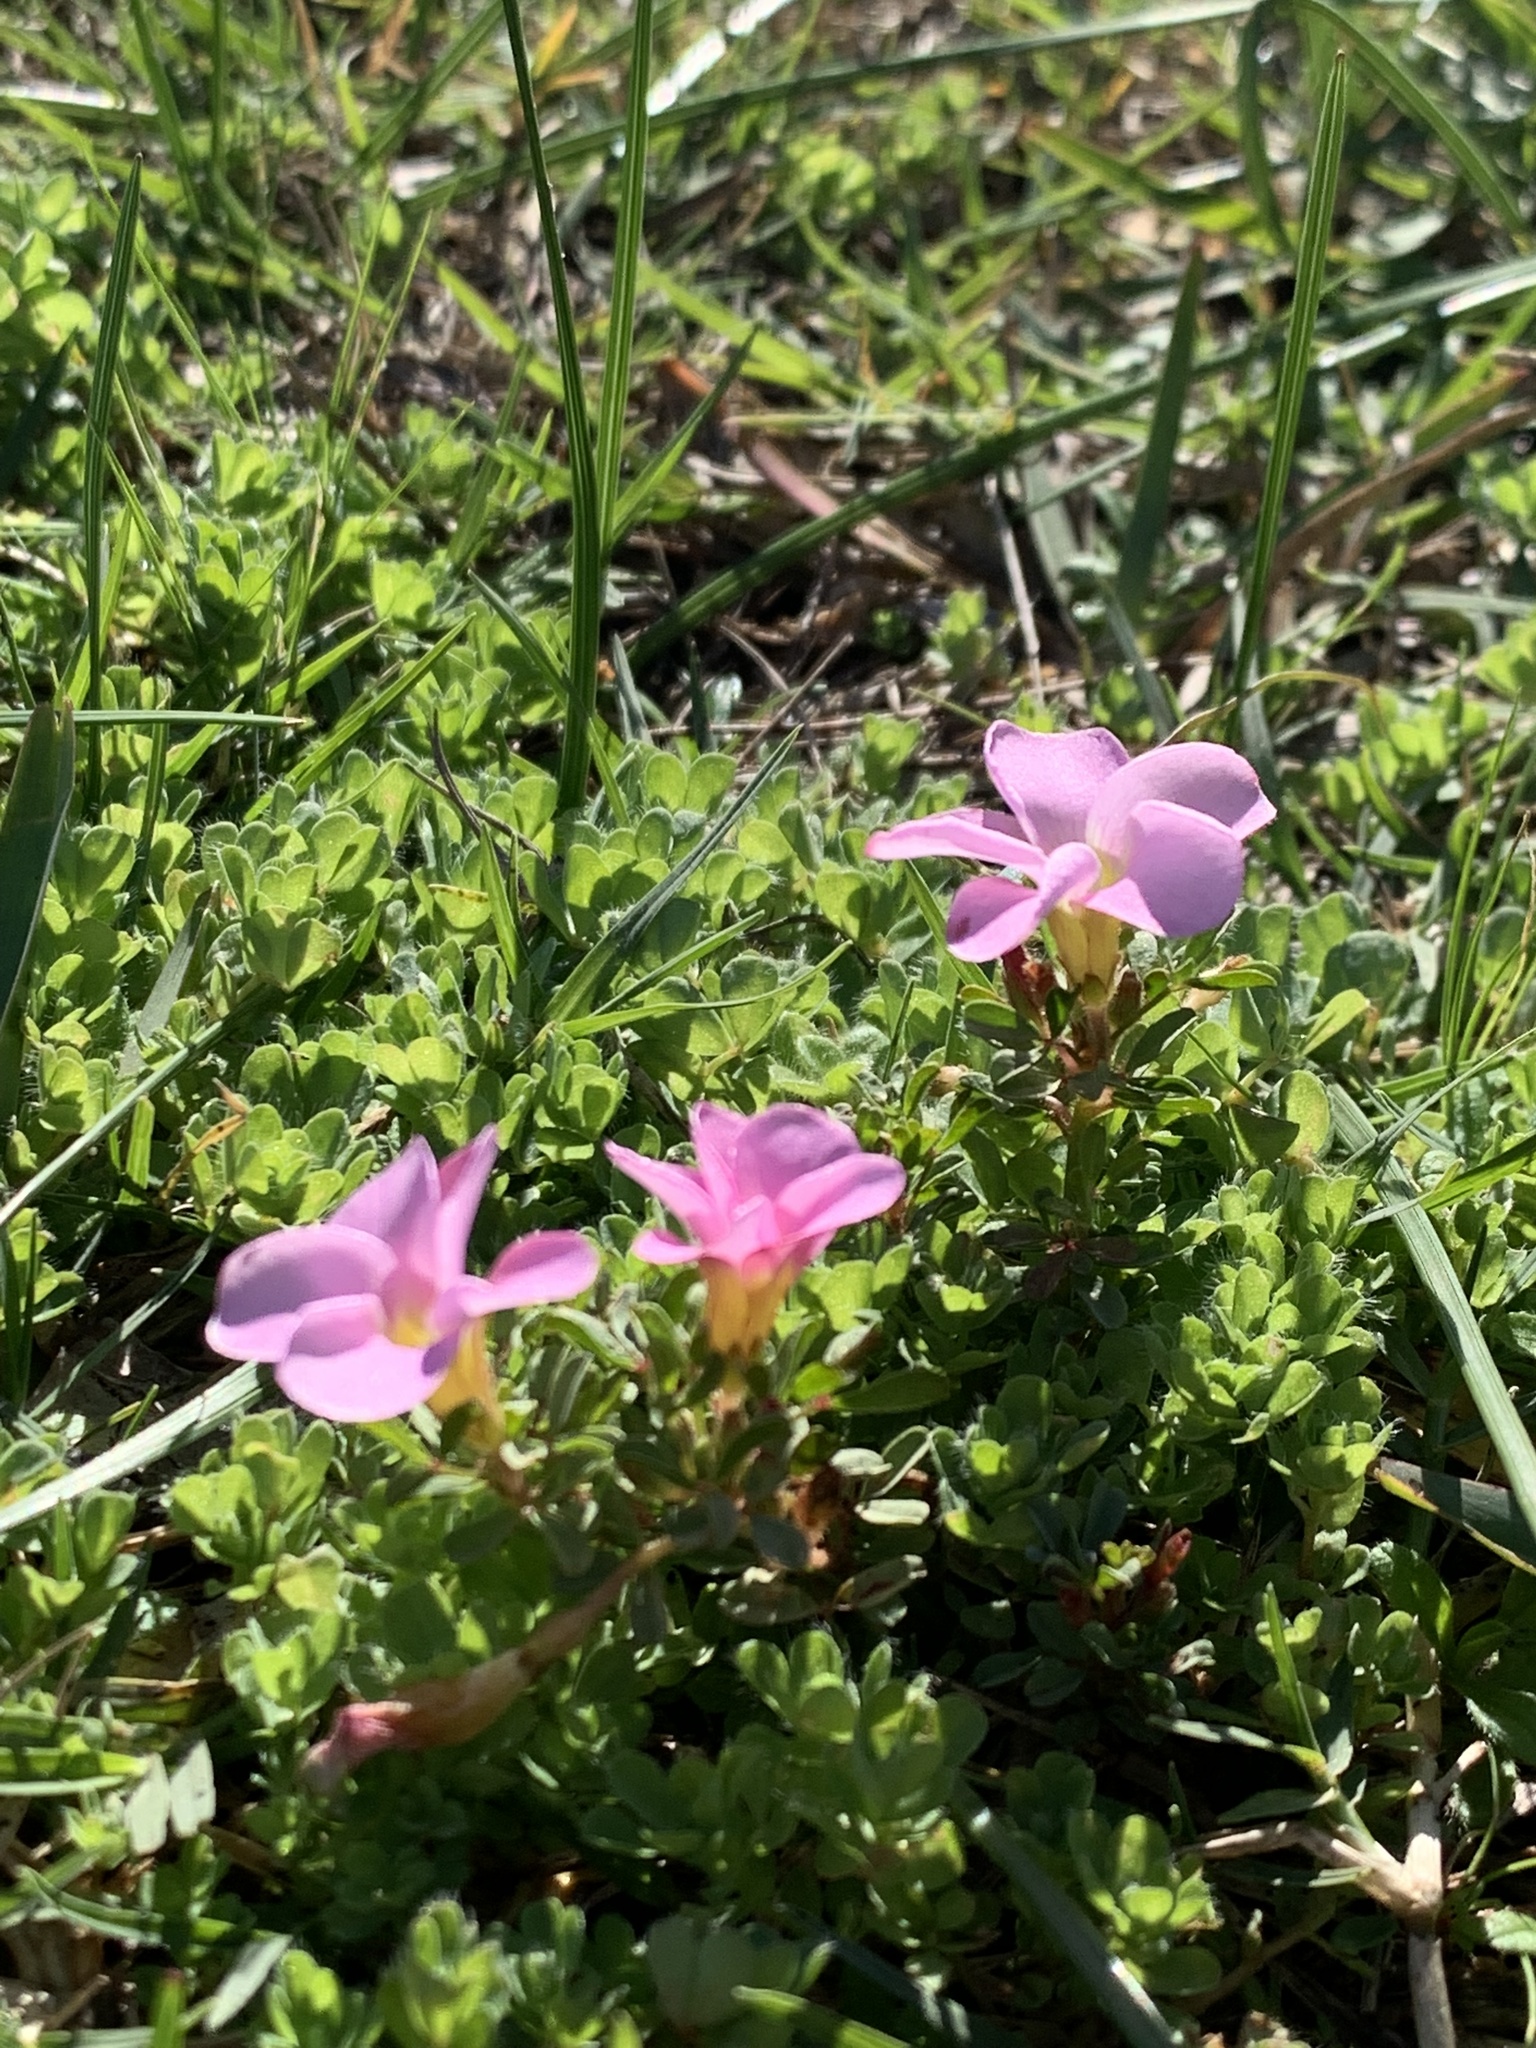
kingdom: Plantae
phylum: Tracheophyta
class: Magnoliopsida
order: Oxalidales
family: Oxalidaceae
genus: Oxalis
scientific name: Oxalis multicaulis
